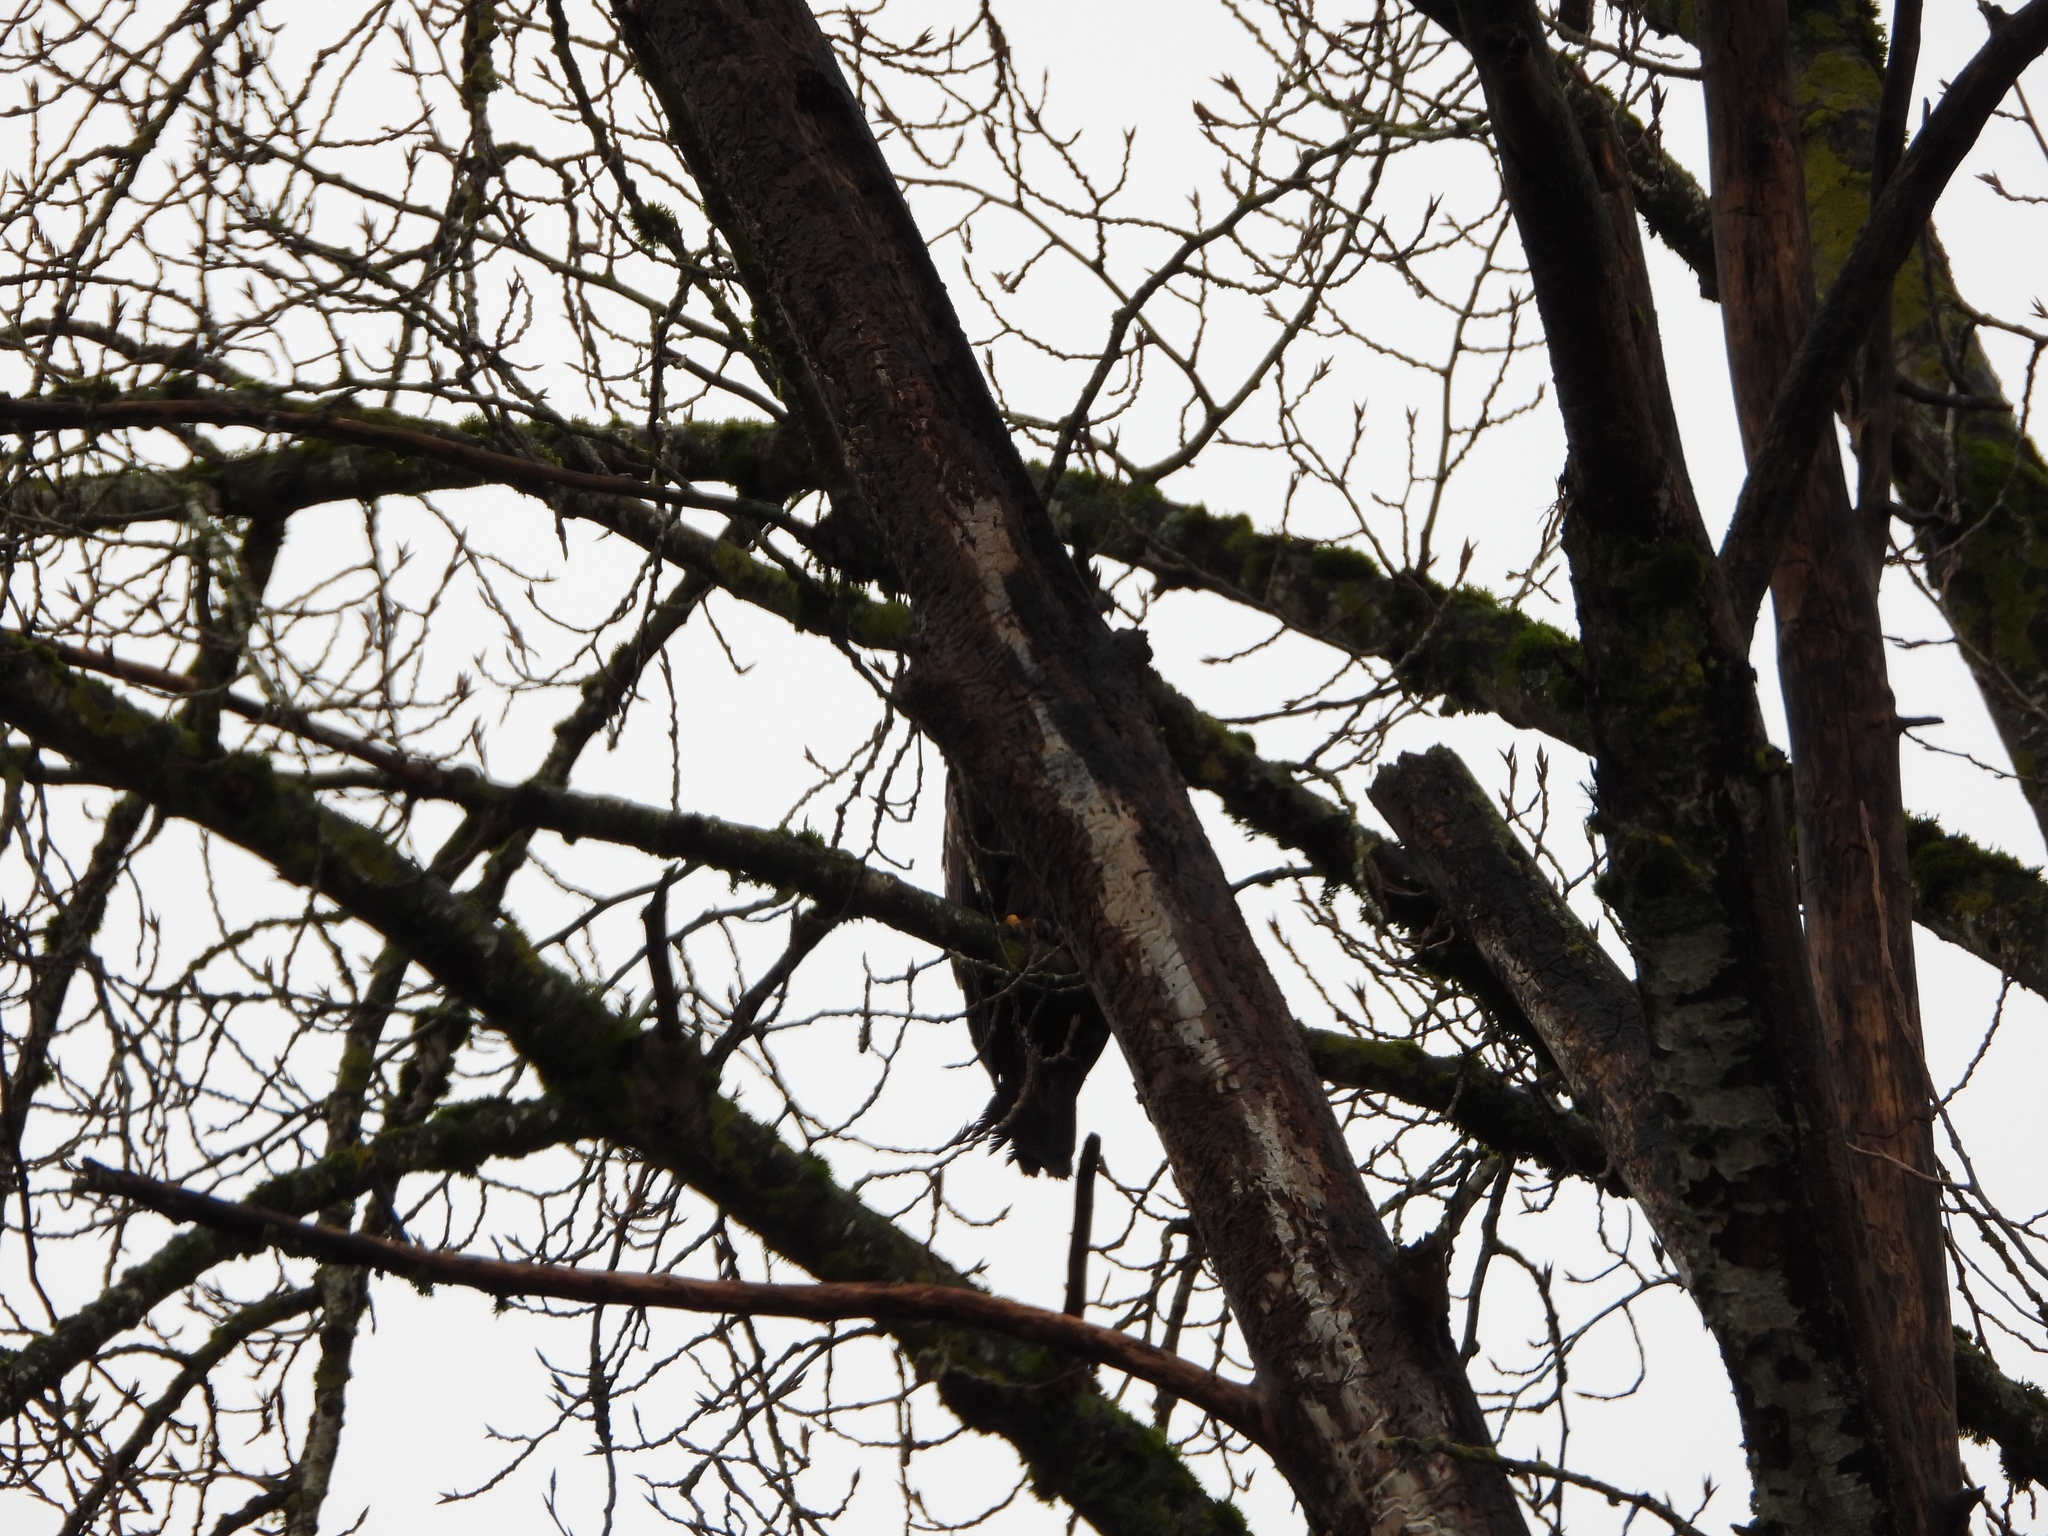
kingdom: Animalia
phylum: Chordata
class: Aves
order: Accipitriformes
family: Accipitridae
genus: Haliaeetus
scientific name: Haliaeetus leucocephalus
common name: Bald eagle
